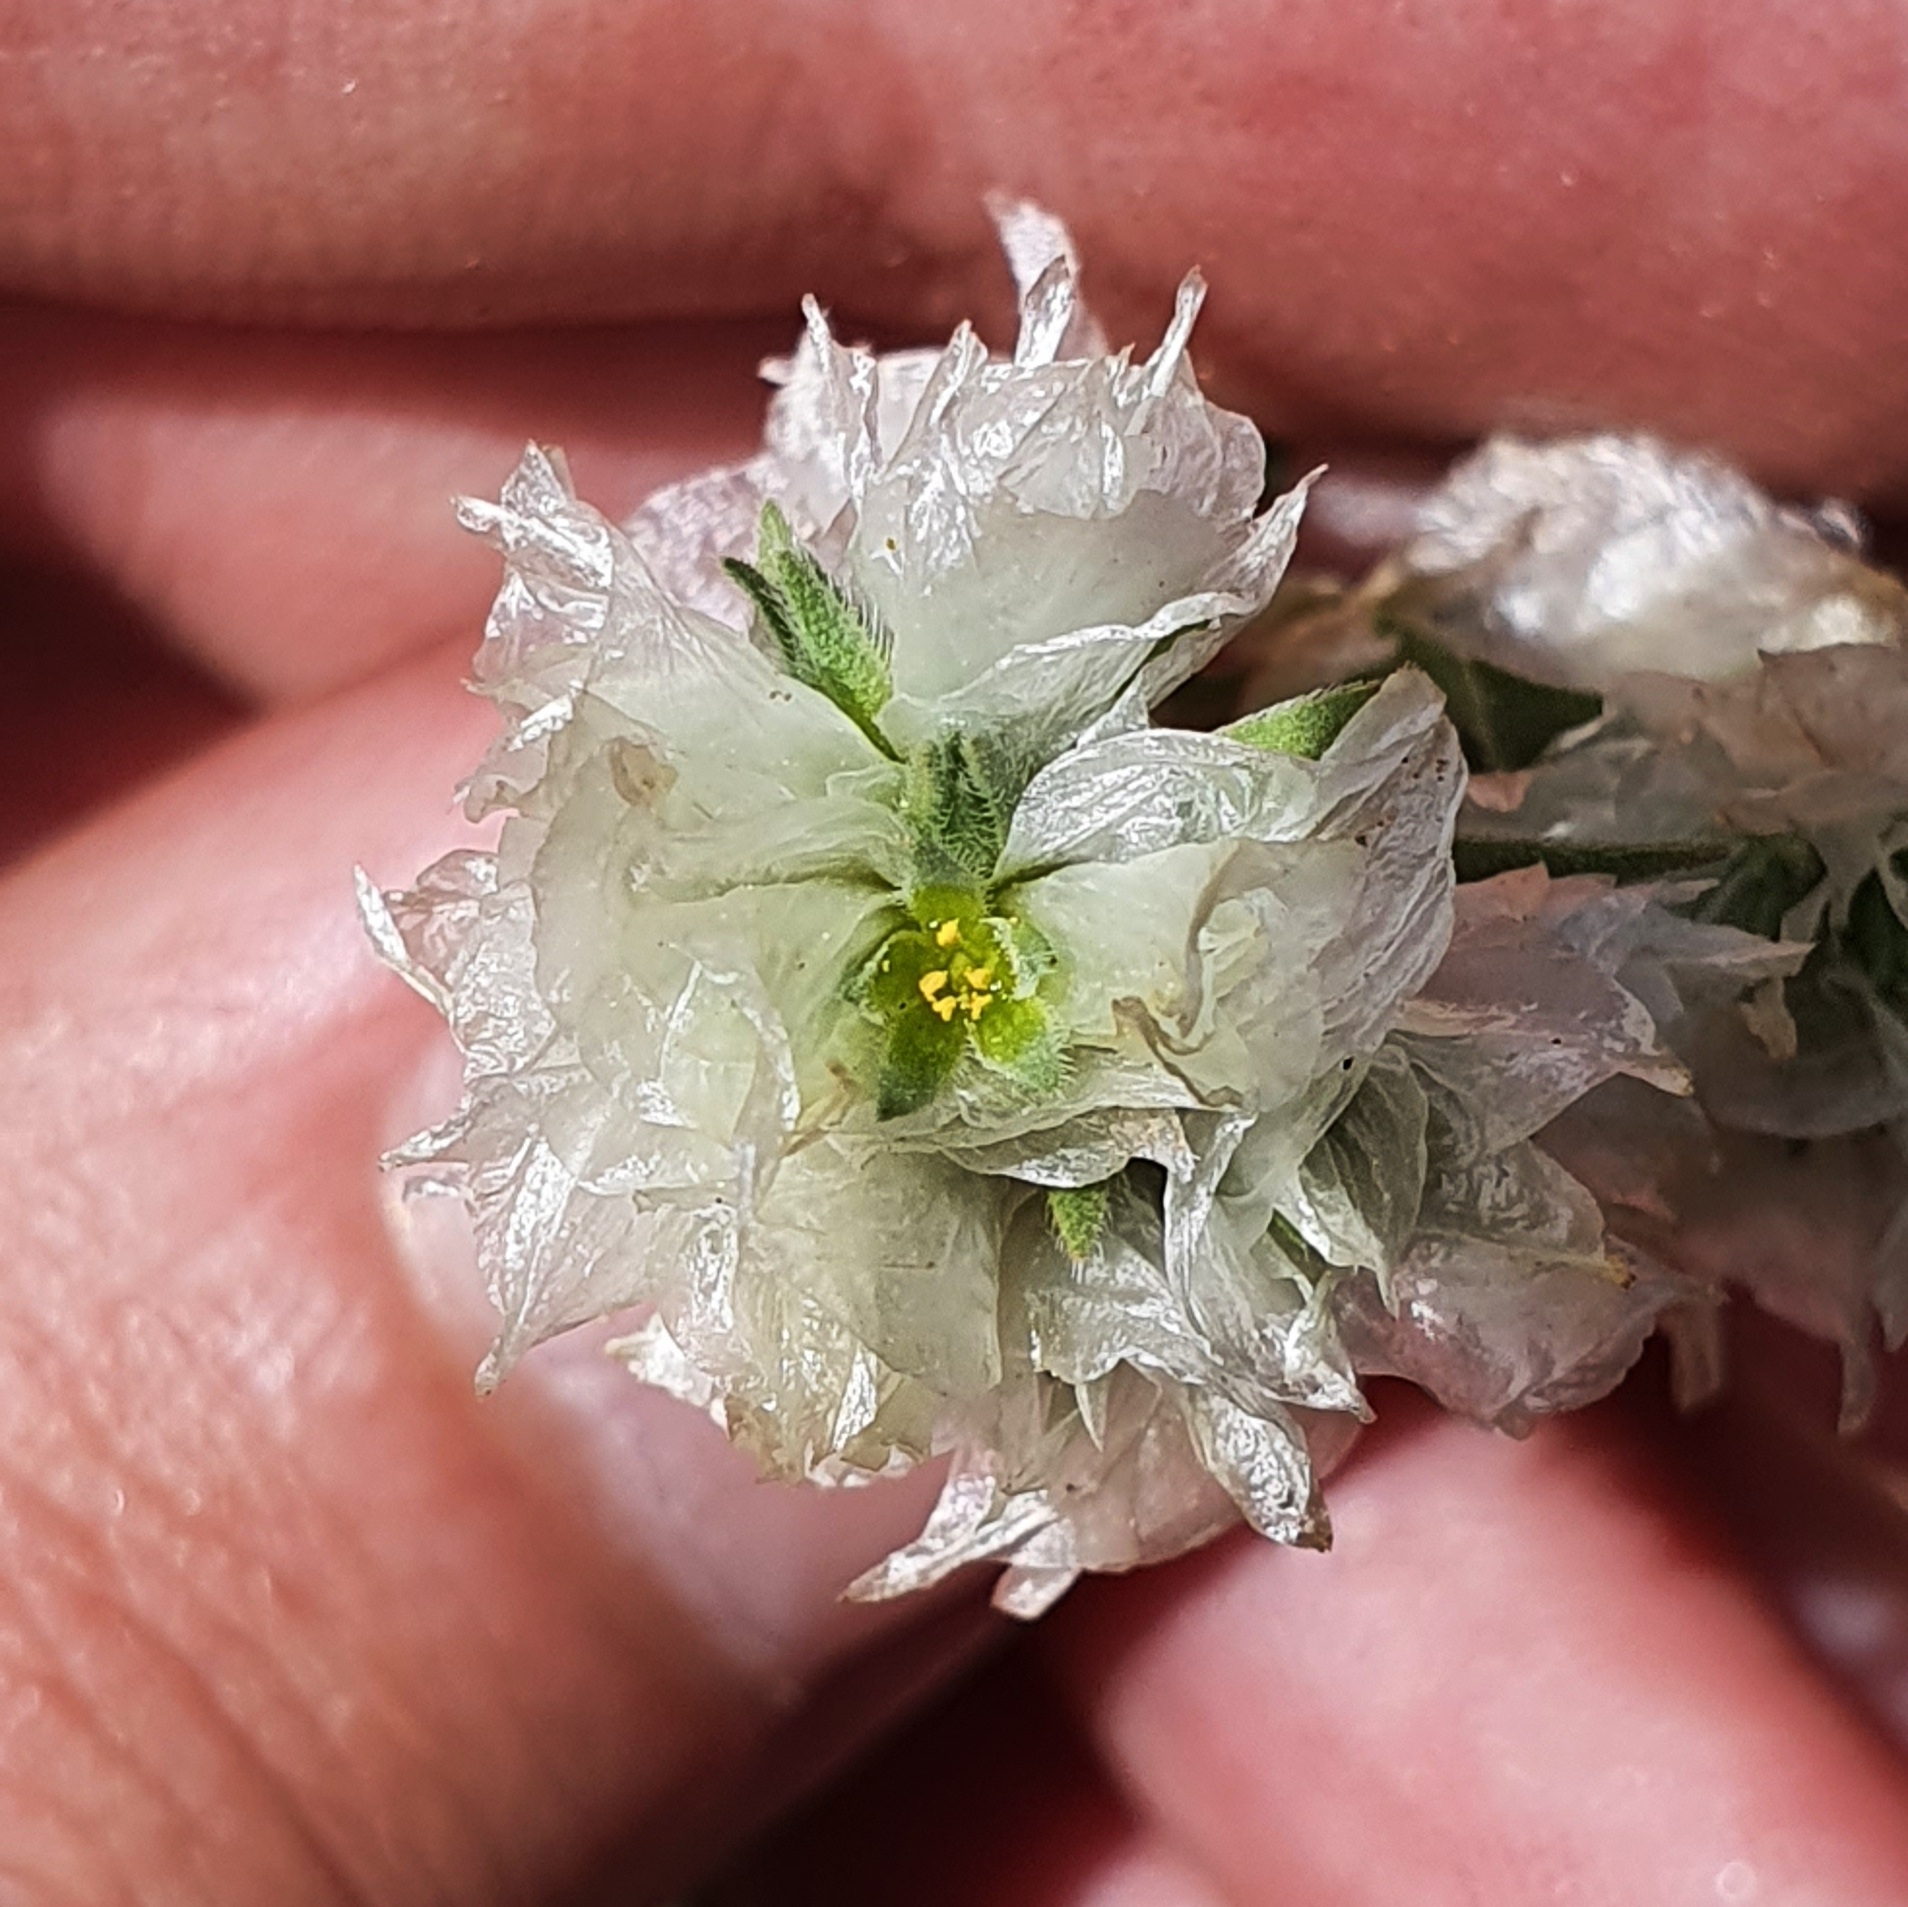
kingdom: Plantae
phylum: Tracheophyta
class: Magnoliopsida
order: Caryophyllales
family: Caryophyllaceae
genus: Paronychia
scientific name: Paronychia
